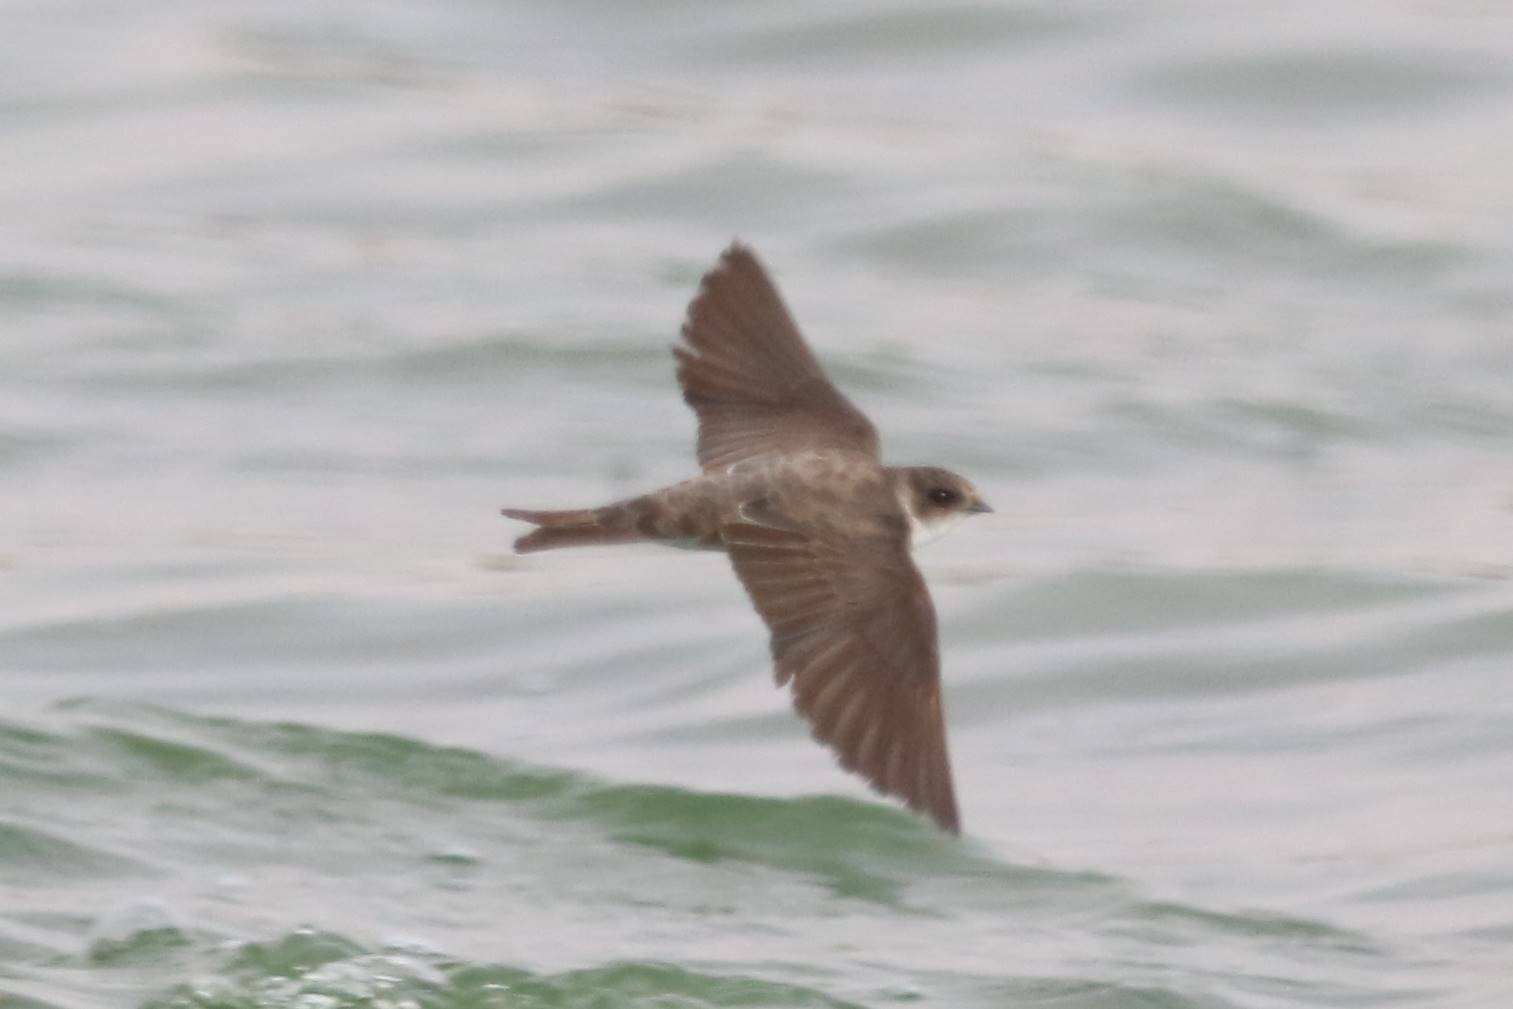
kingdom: Animalia
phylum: Chordata
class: Aves
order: Passeriformes
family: Hirundinidae
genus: Riparia
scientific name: Riparia riparia
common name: Sand martin
